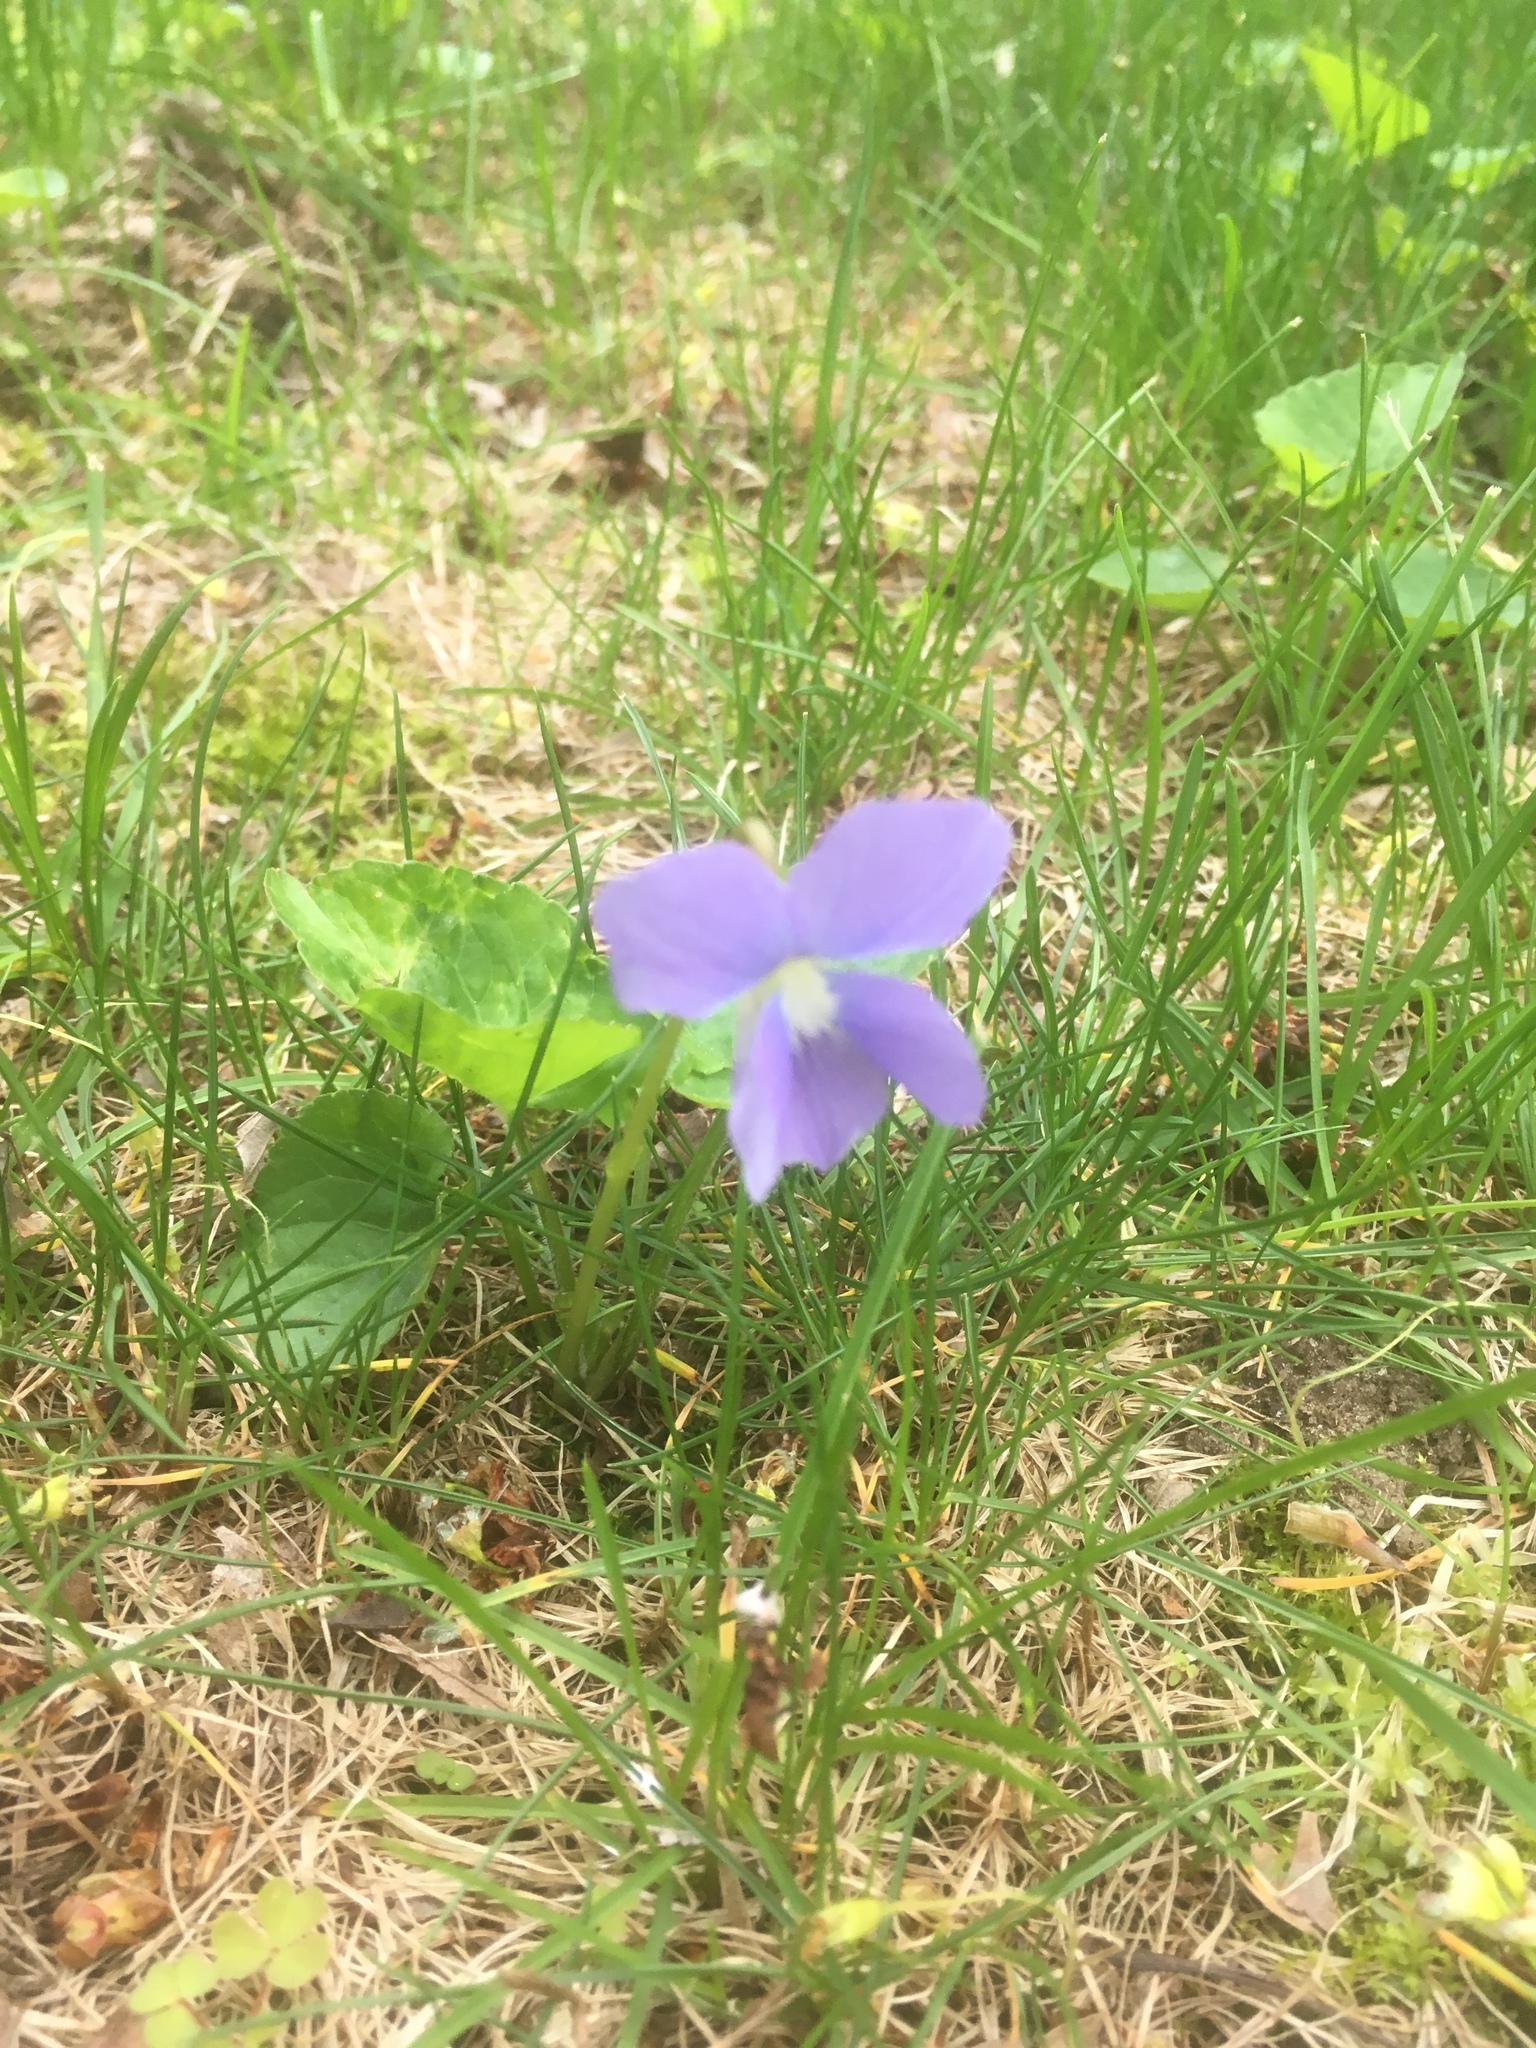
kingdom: Plantae
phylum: Tracheophyta
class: Magnoliopsida
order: Malpighiales
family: Violaceae
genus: Viola
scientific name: Viola sororia
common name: Dooryard violet
